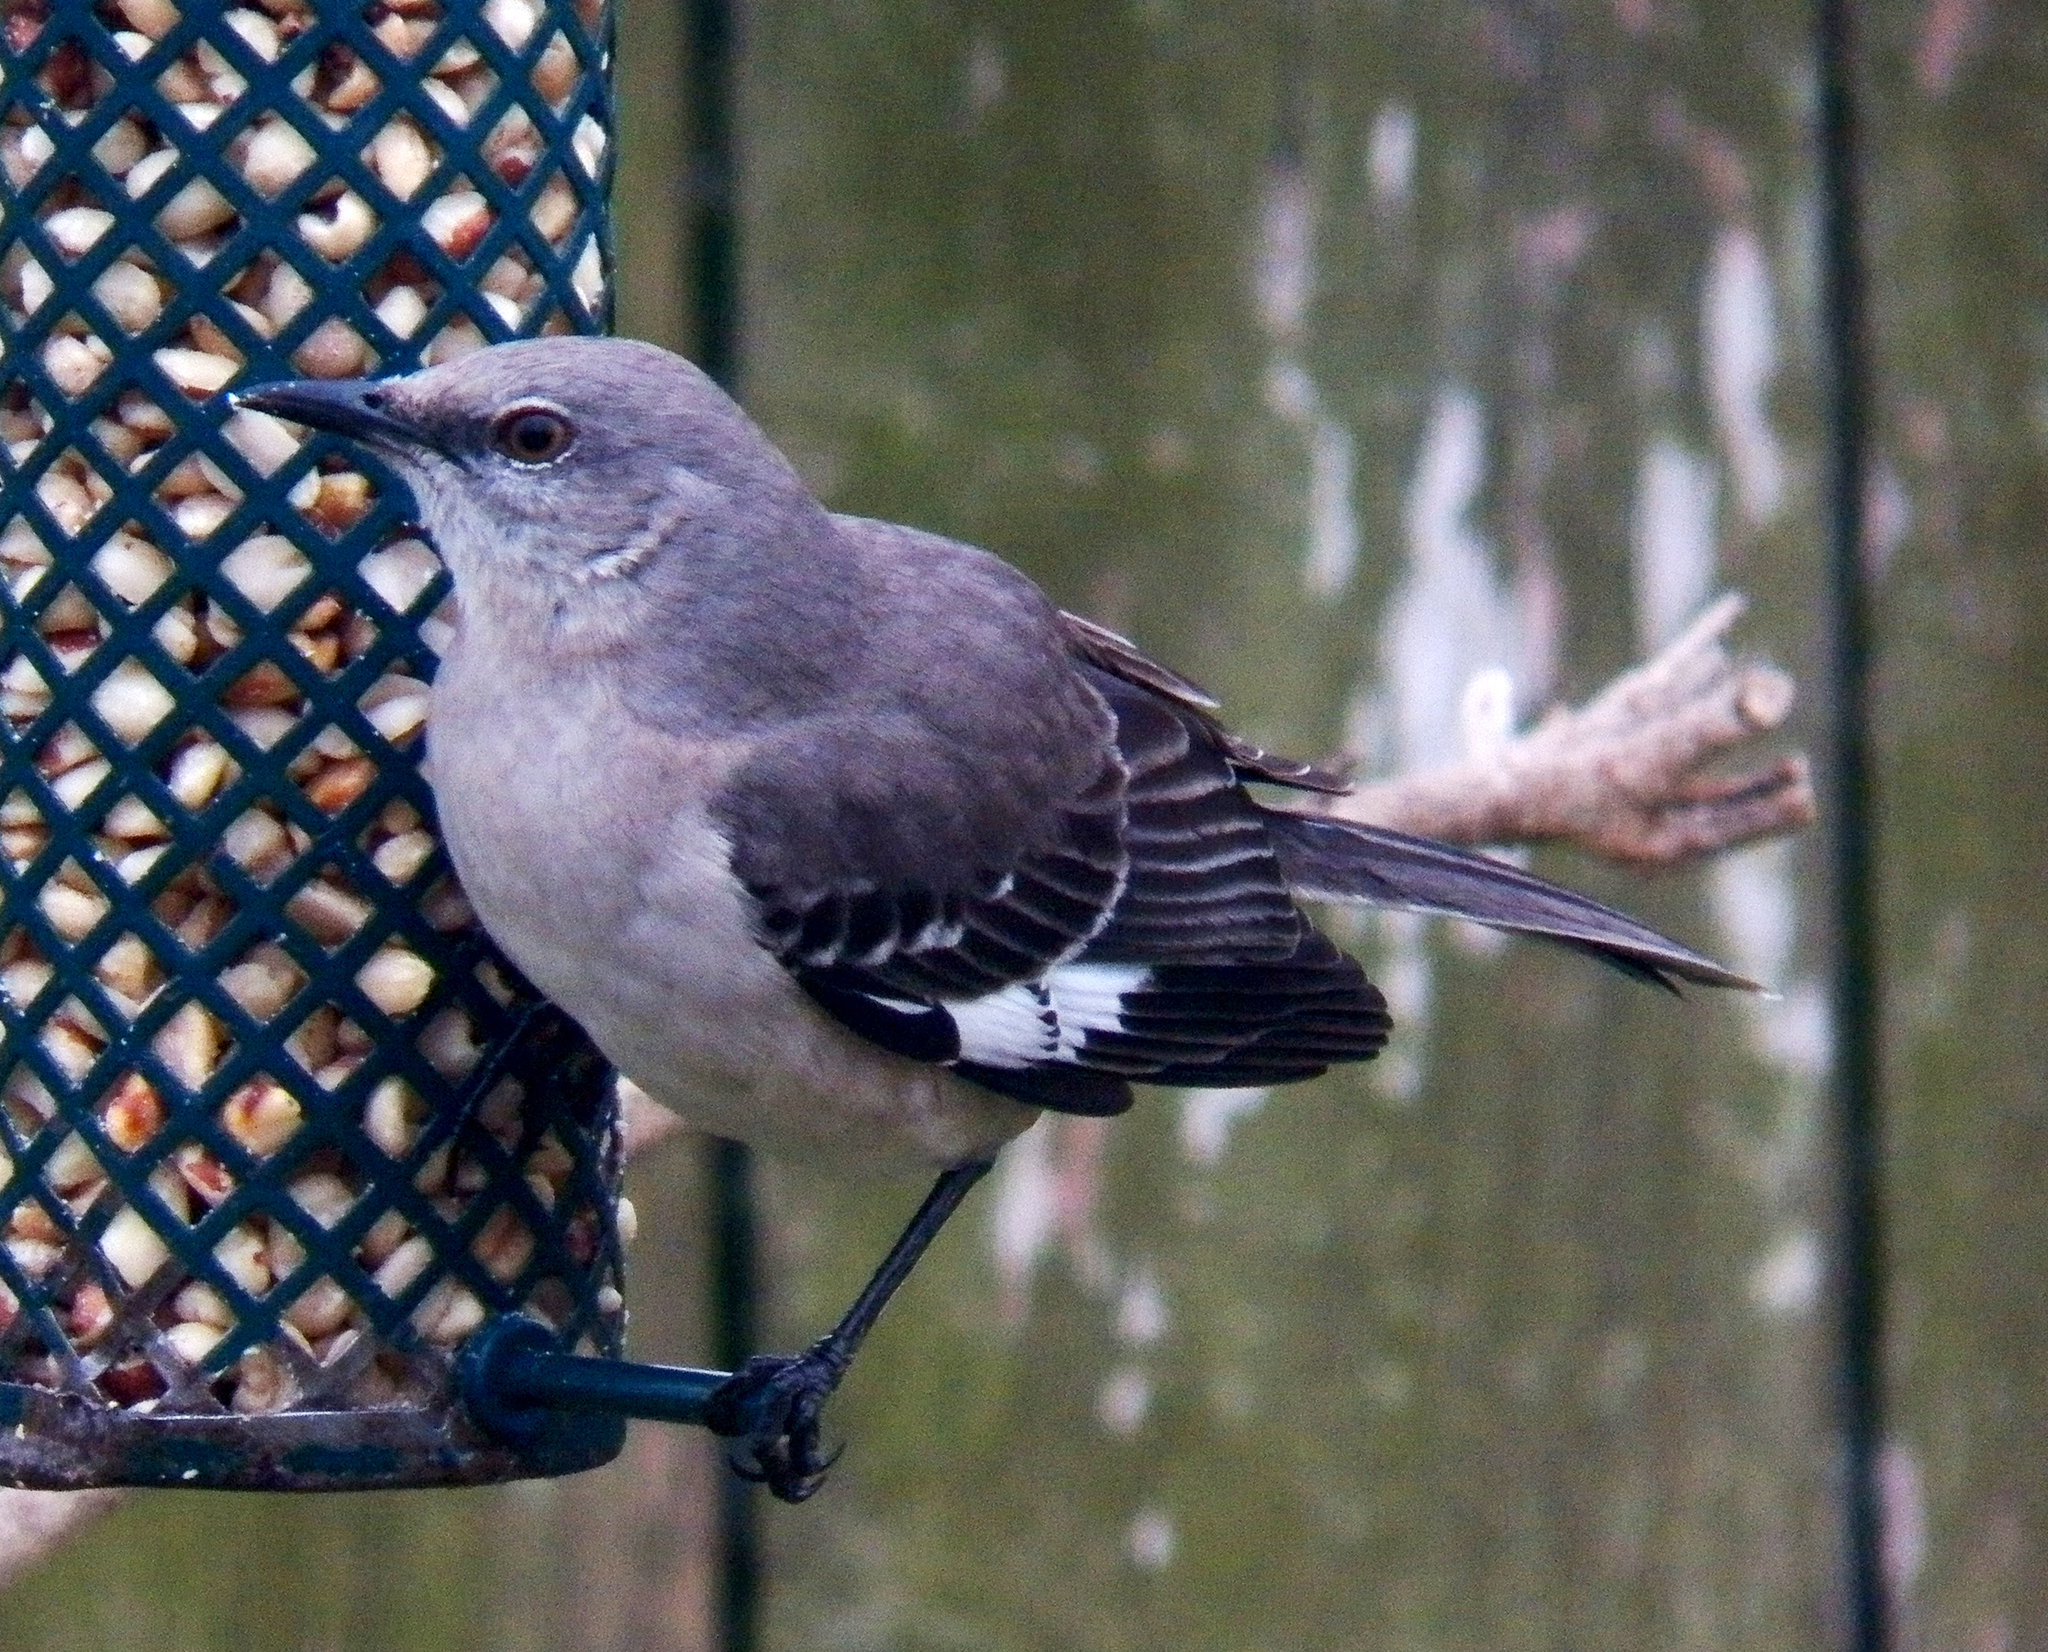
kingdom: Animalia
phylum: Chordata
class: Aves
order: Passeriformes
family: Mimidae
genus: Mimus
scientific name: Mimus polyglottos
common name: Northern mockingbird
